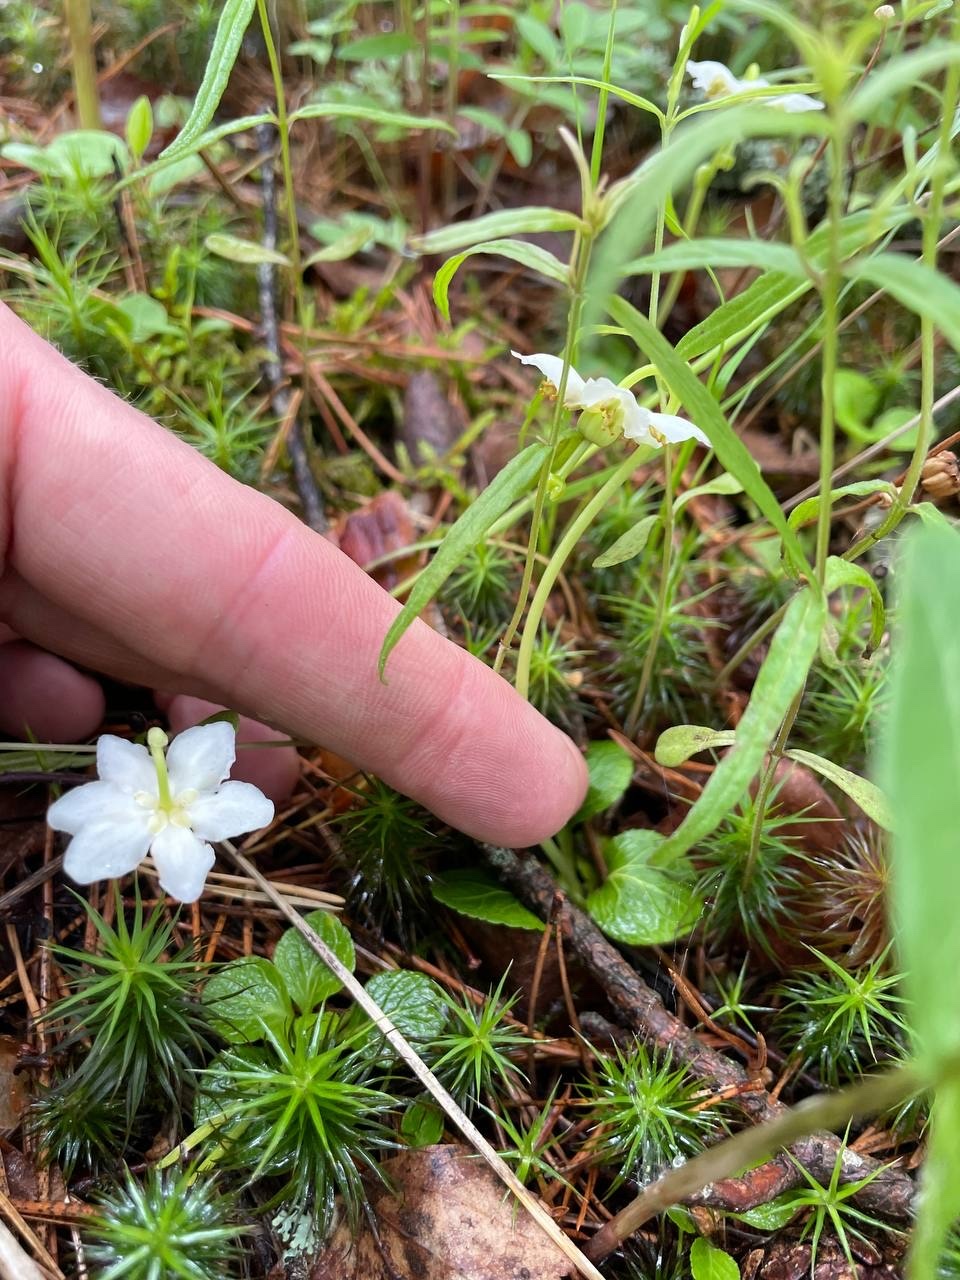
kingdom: Plantae
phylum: Tracheophyta
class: Magnoliopsida
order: Ericales
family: Ericaceae
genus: Moneses
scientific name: Moneses uniflora
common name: One-flowered wintergreen
